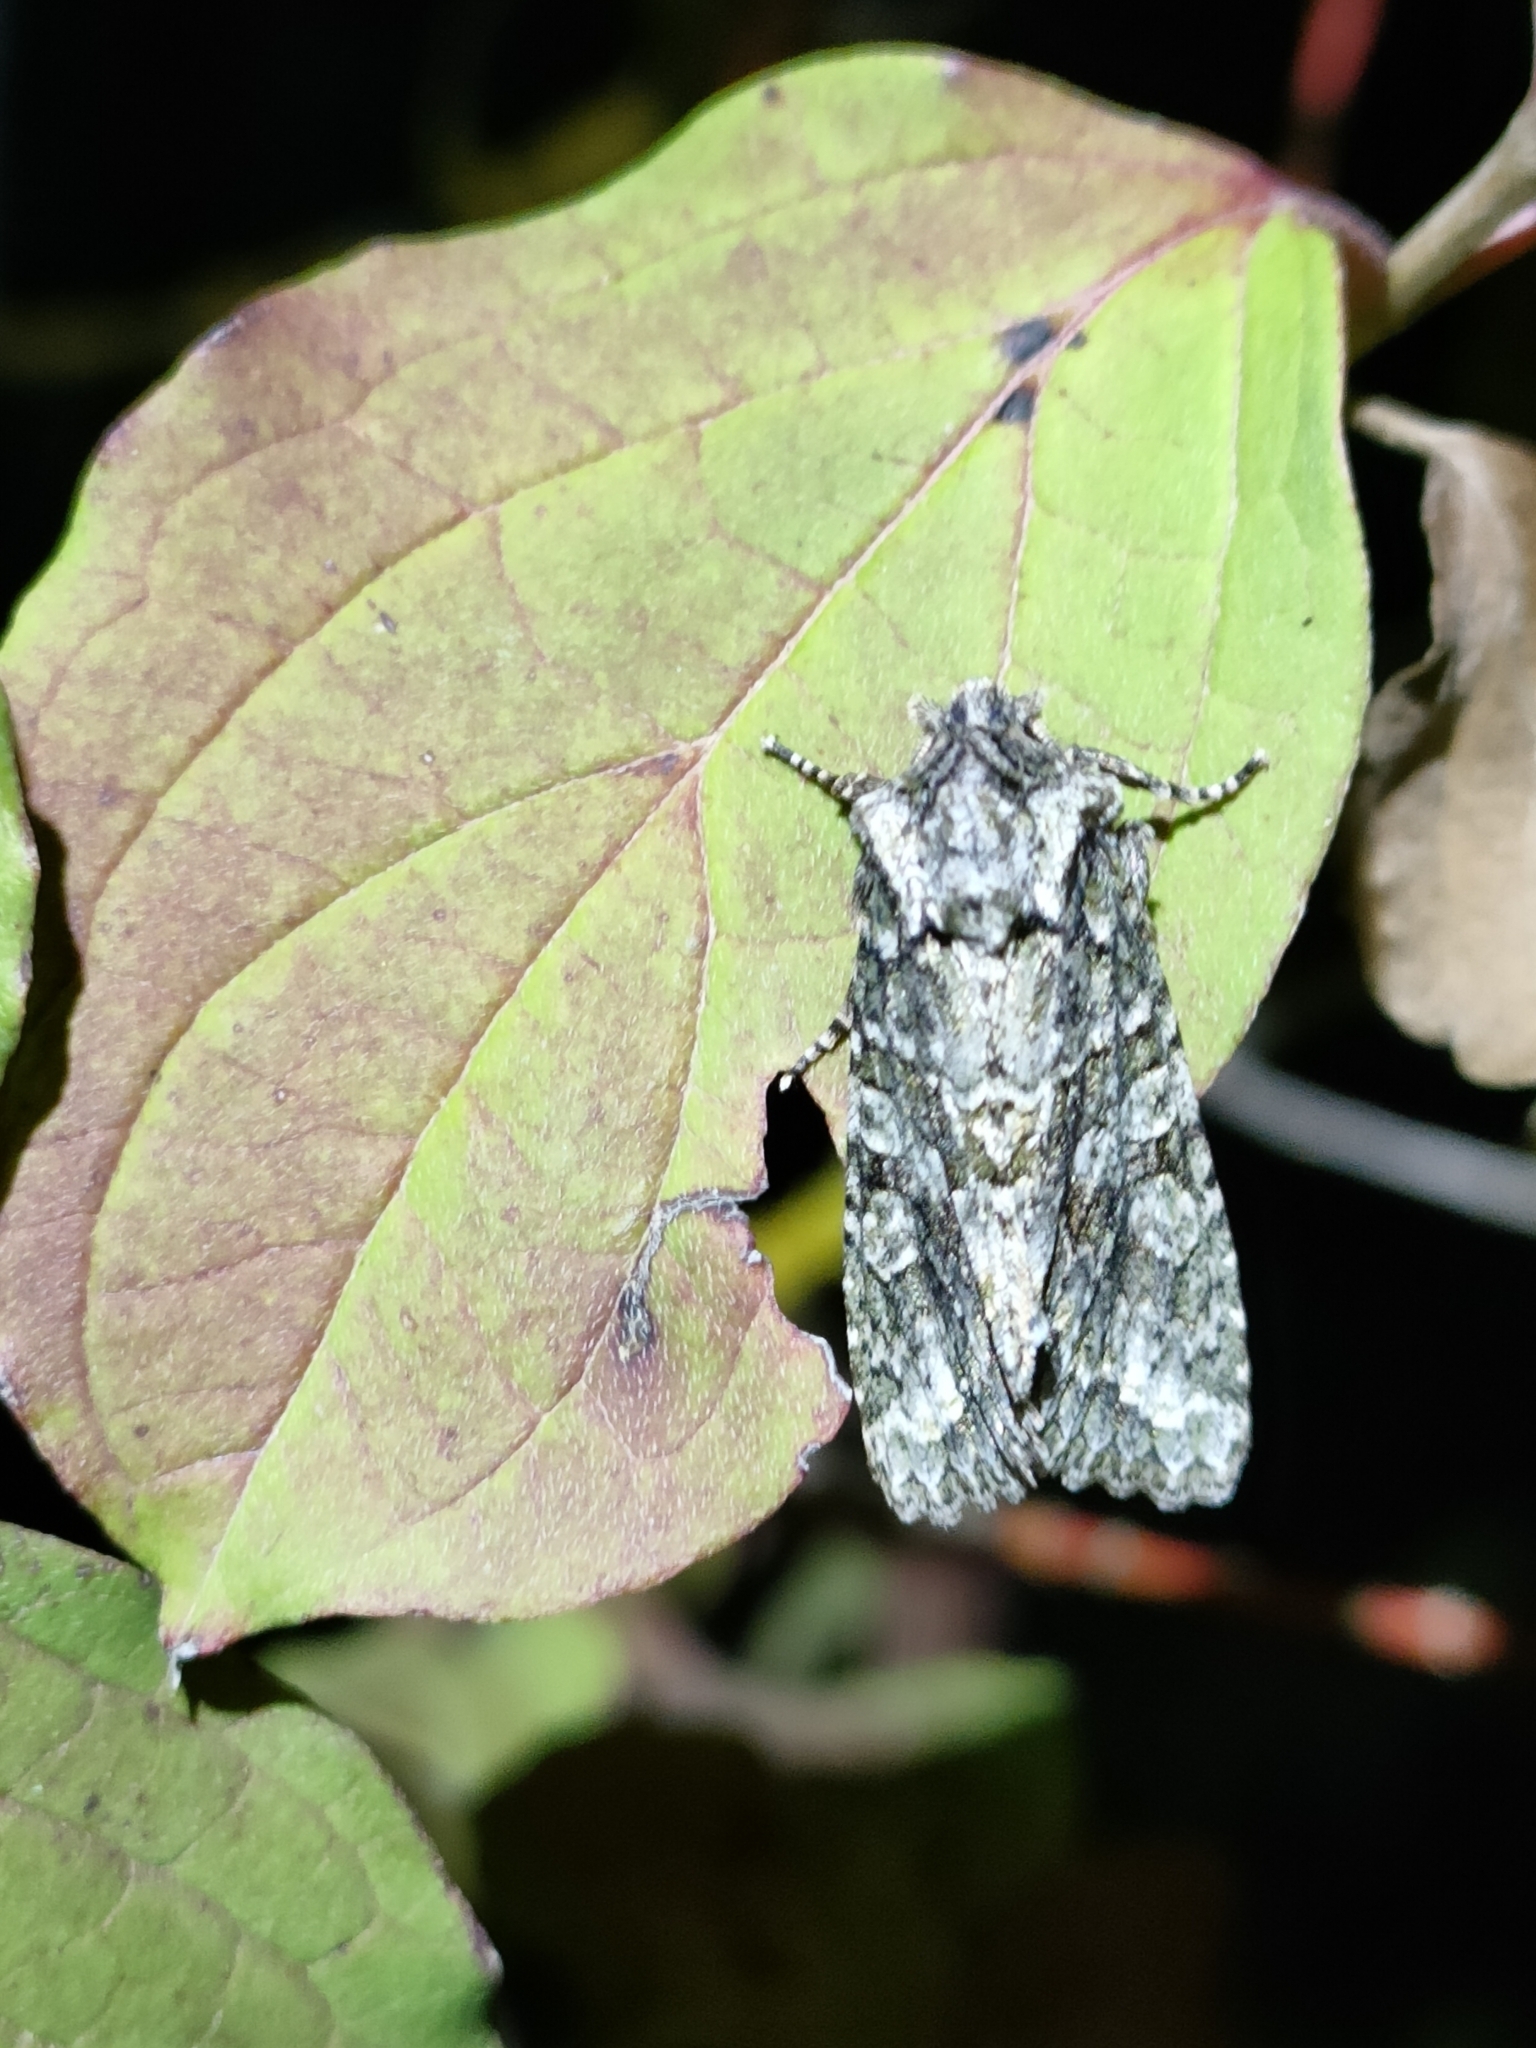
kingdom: Animalia
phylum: Arthropoda
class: Insecta
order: Lepidoptera
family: Noctuidae
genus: Dryobotodes
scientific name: Dryobotodes tenebrosa
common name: Sombre brocade
